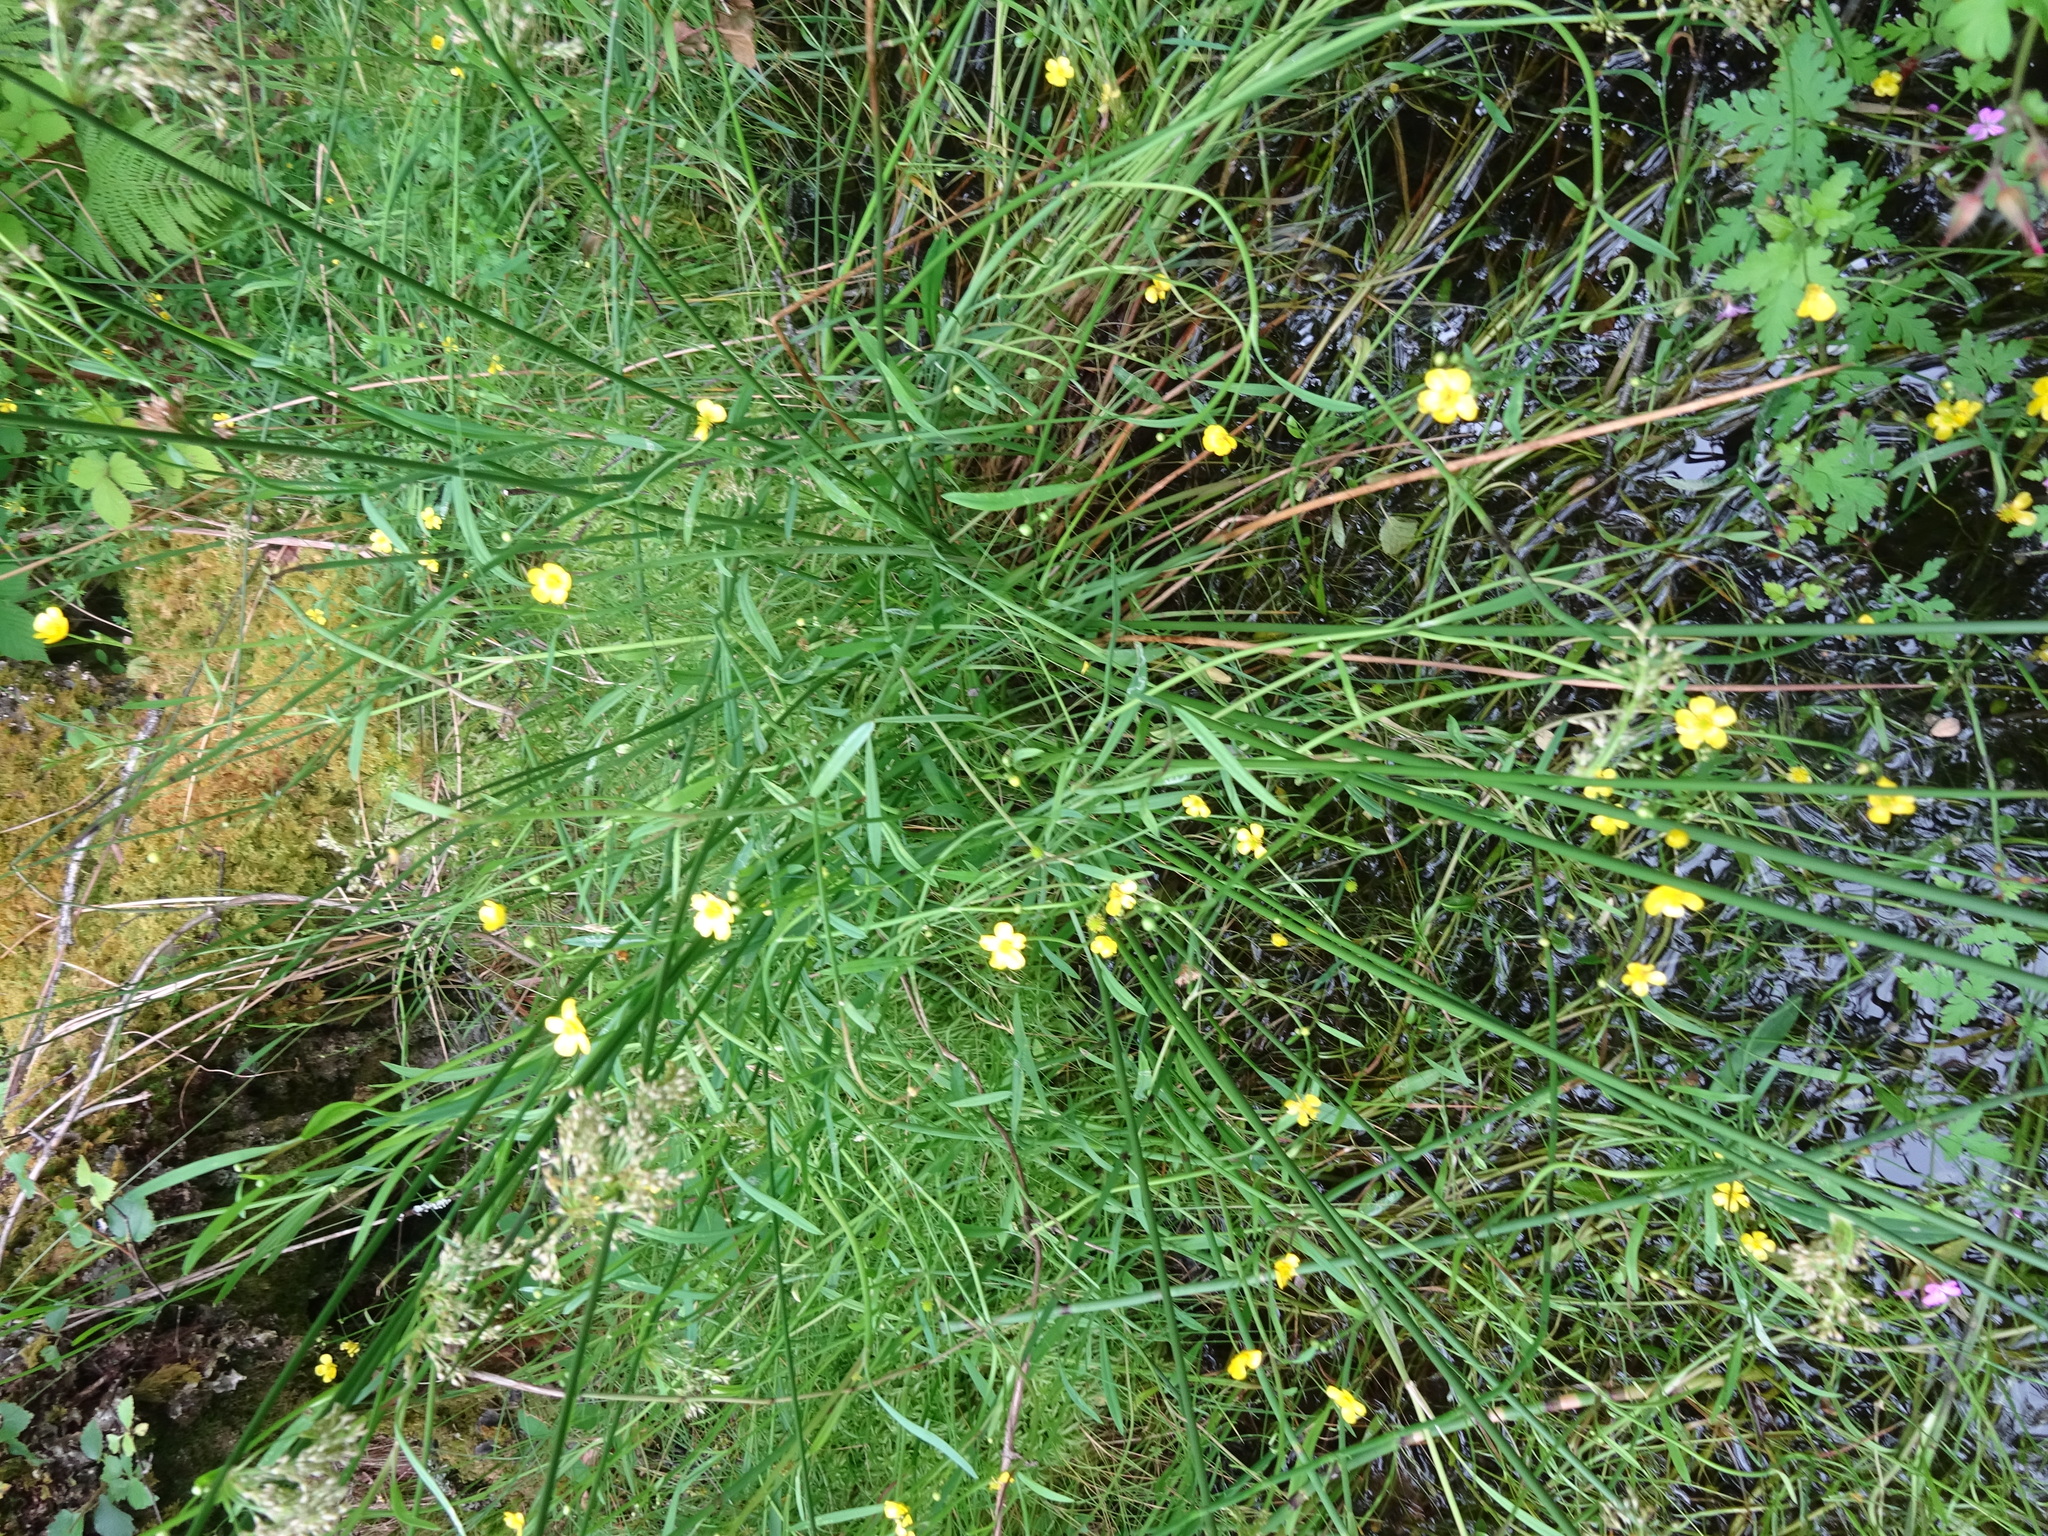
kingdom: Plantae
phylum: Tracheophyta
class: Magnoliopsida
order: Ranunculales
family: Ranunculaceae
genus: Ranunculus
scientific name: Ranunculus flammula
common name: Lesser spearwort
